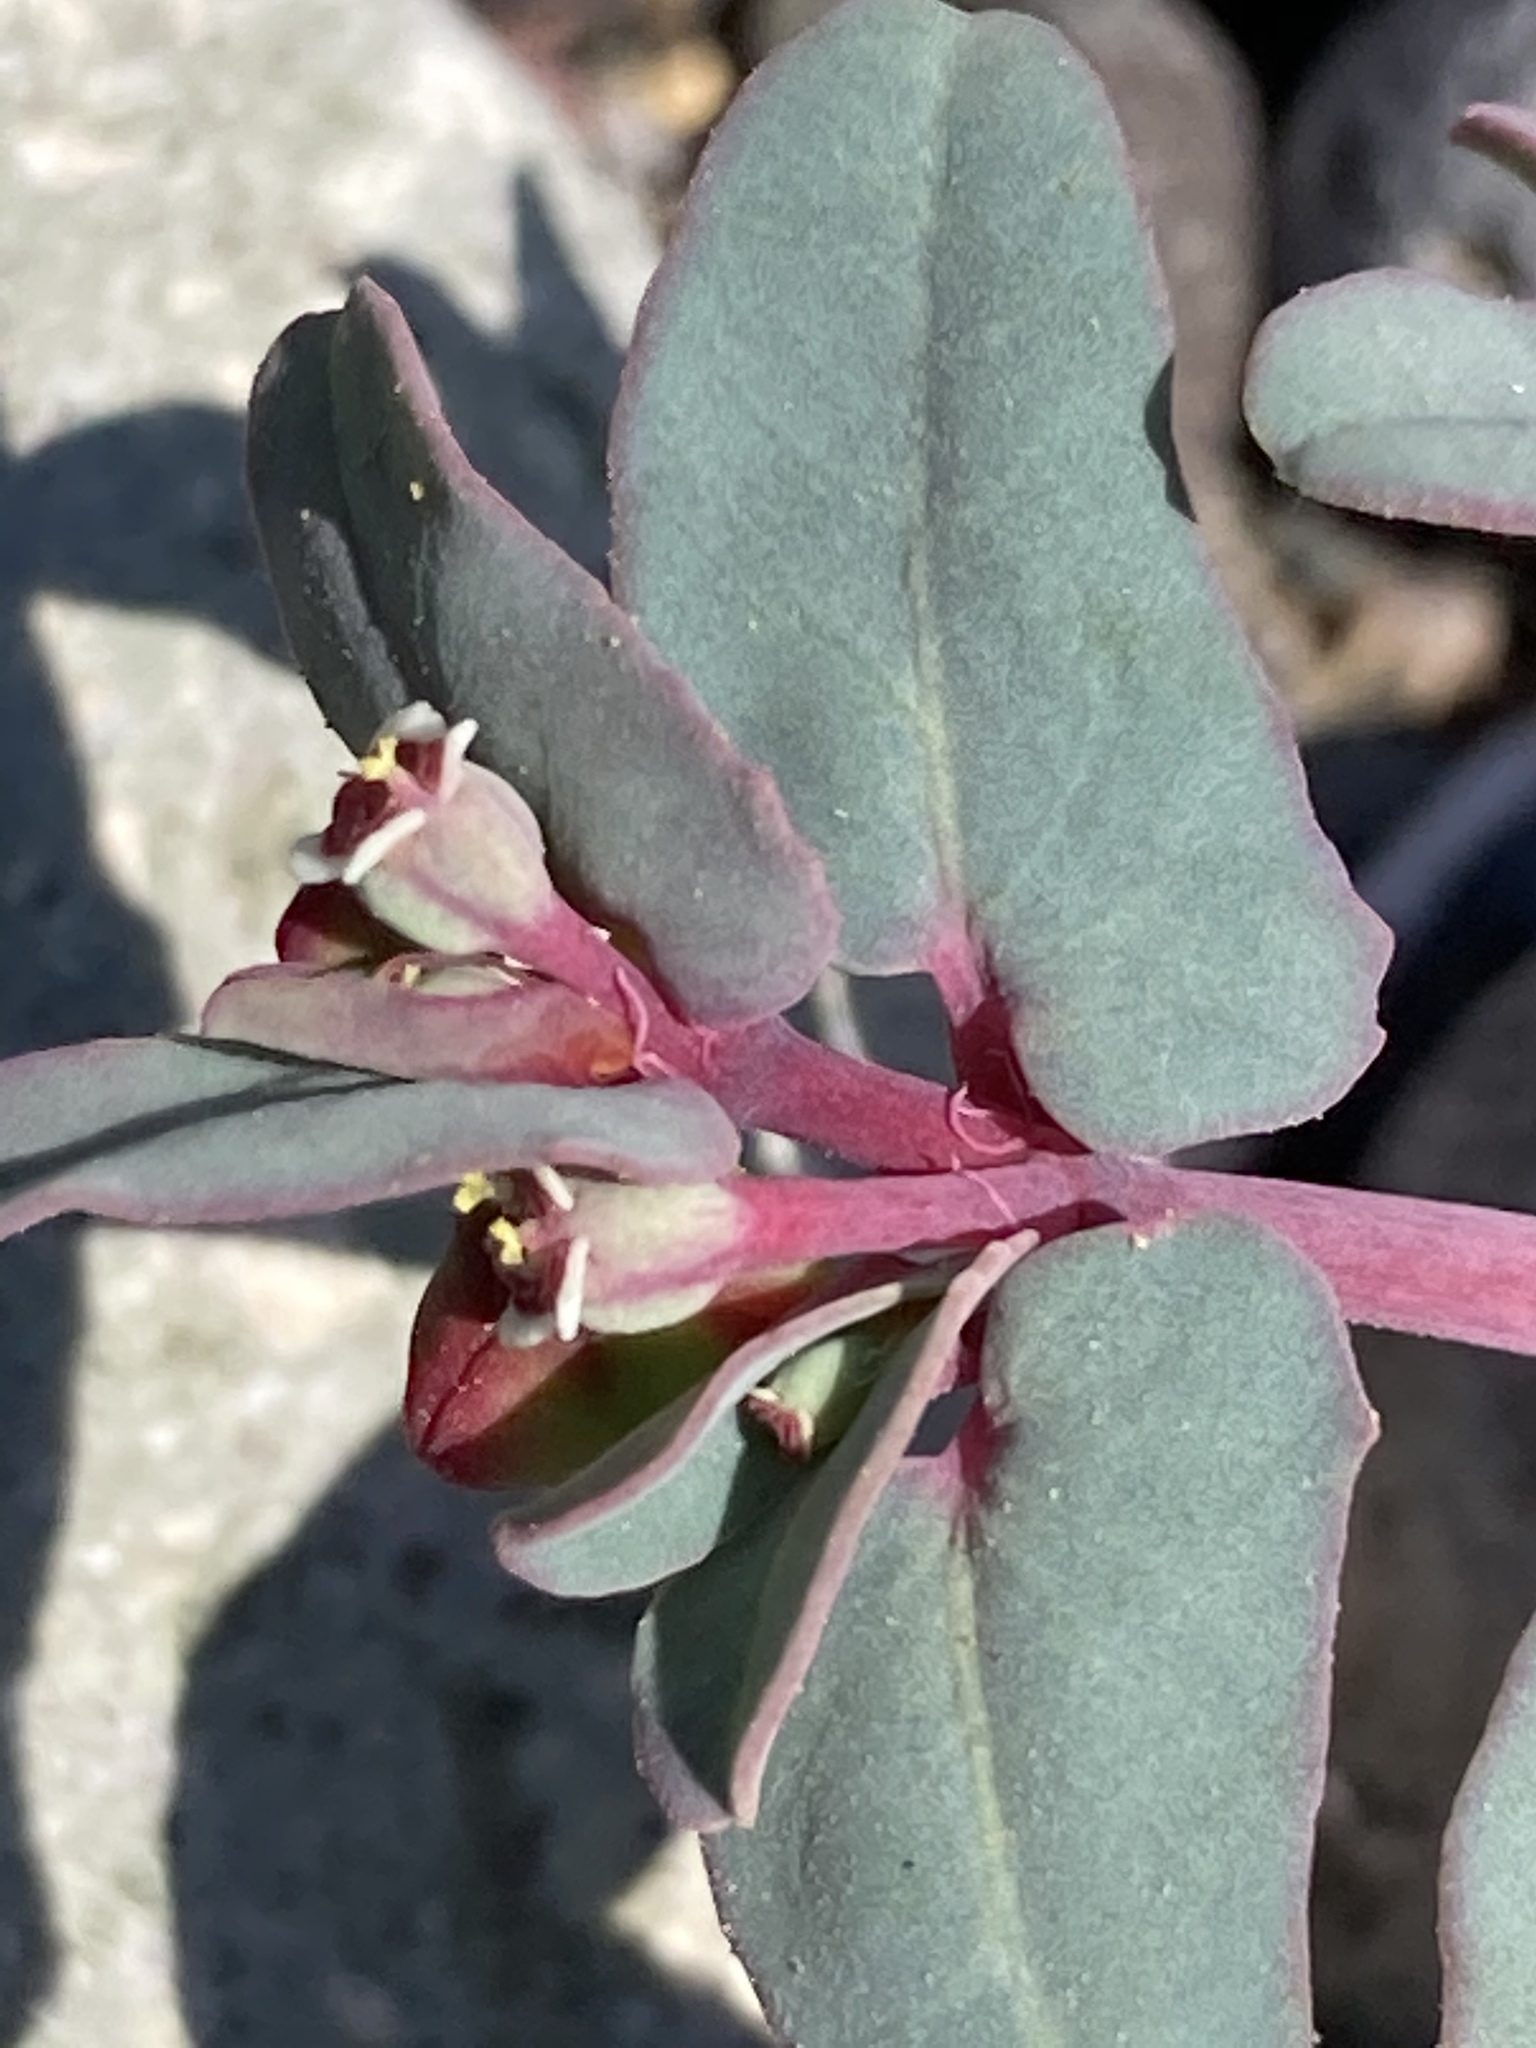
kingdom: Plantae
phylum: Tracheophyta
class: Magnoliopsida
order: Malpighiales
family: Euphorbiaceae
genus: Euphorbia
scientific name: Euphorbia peplis
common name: Purple spurge
